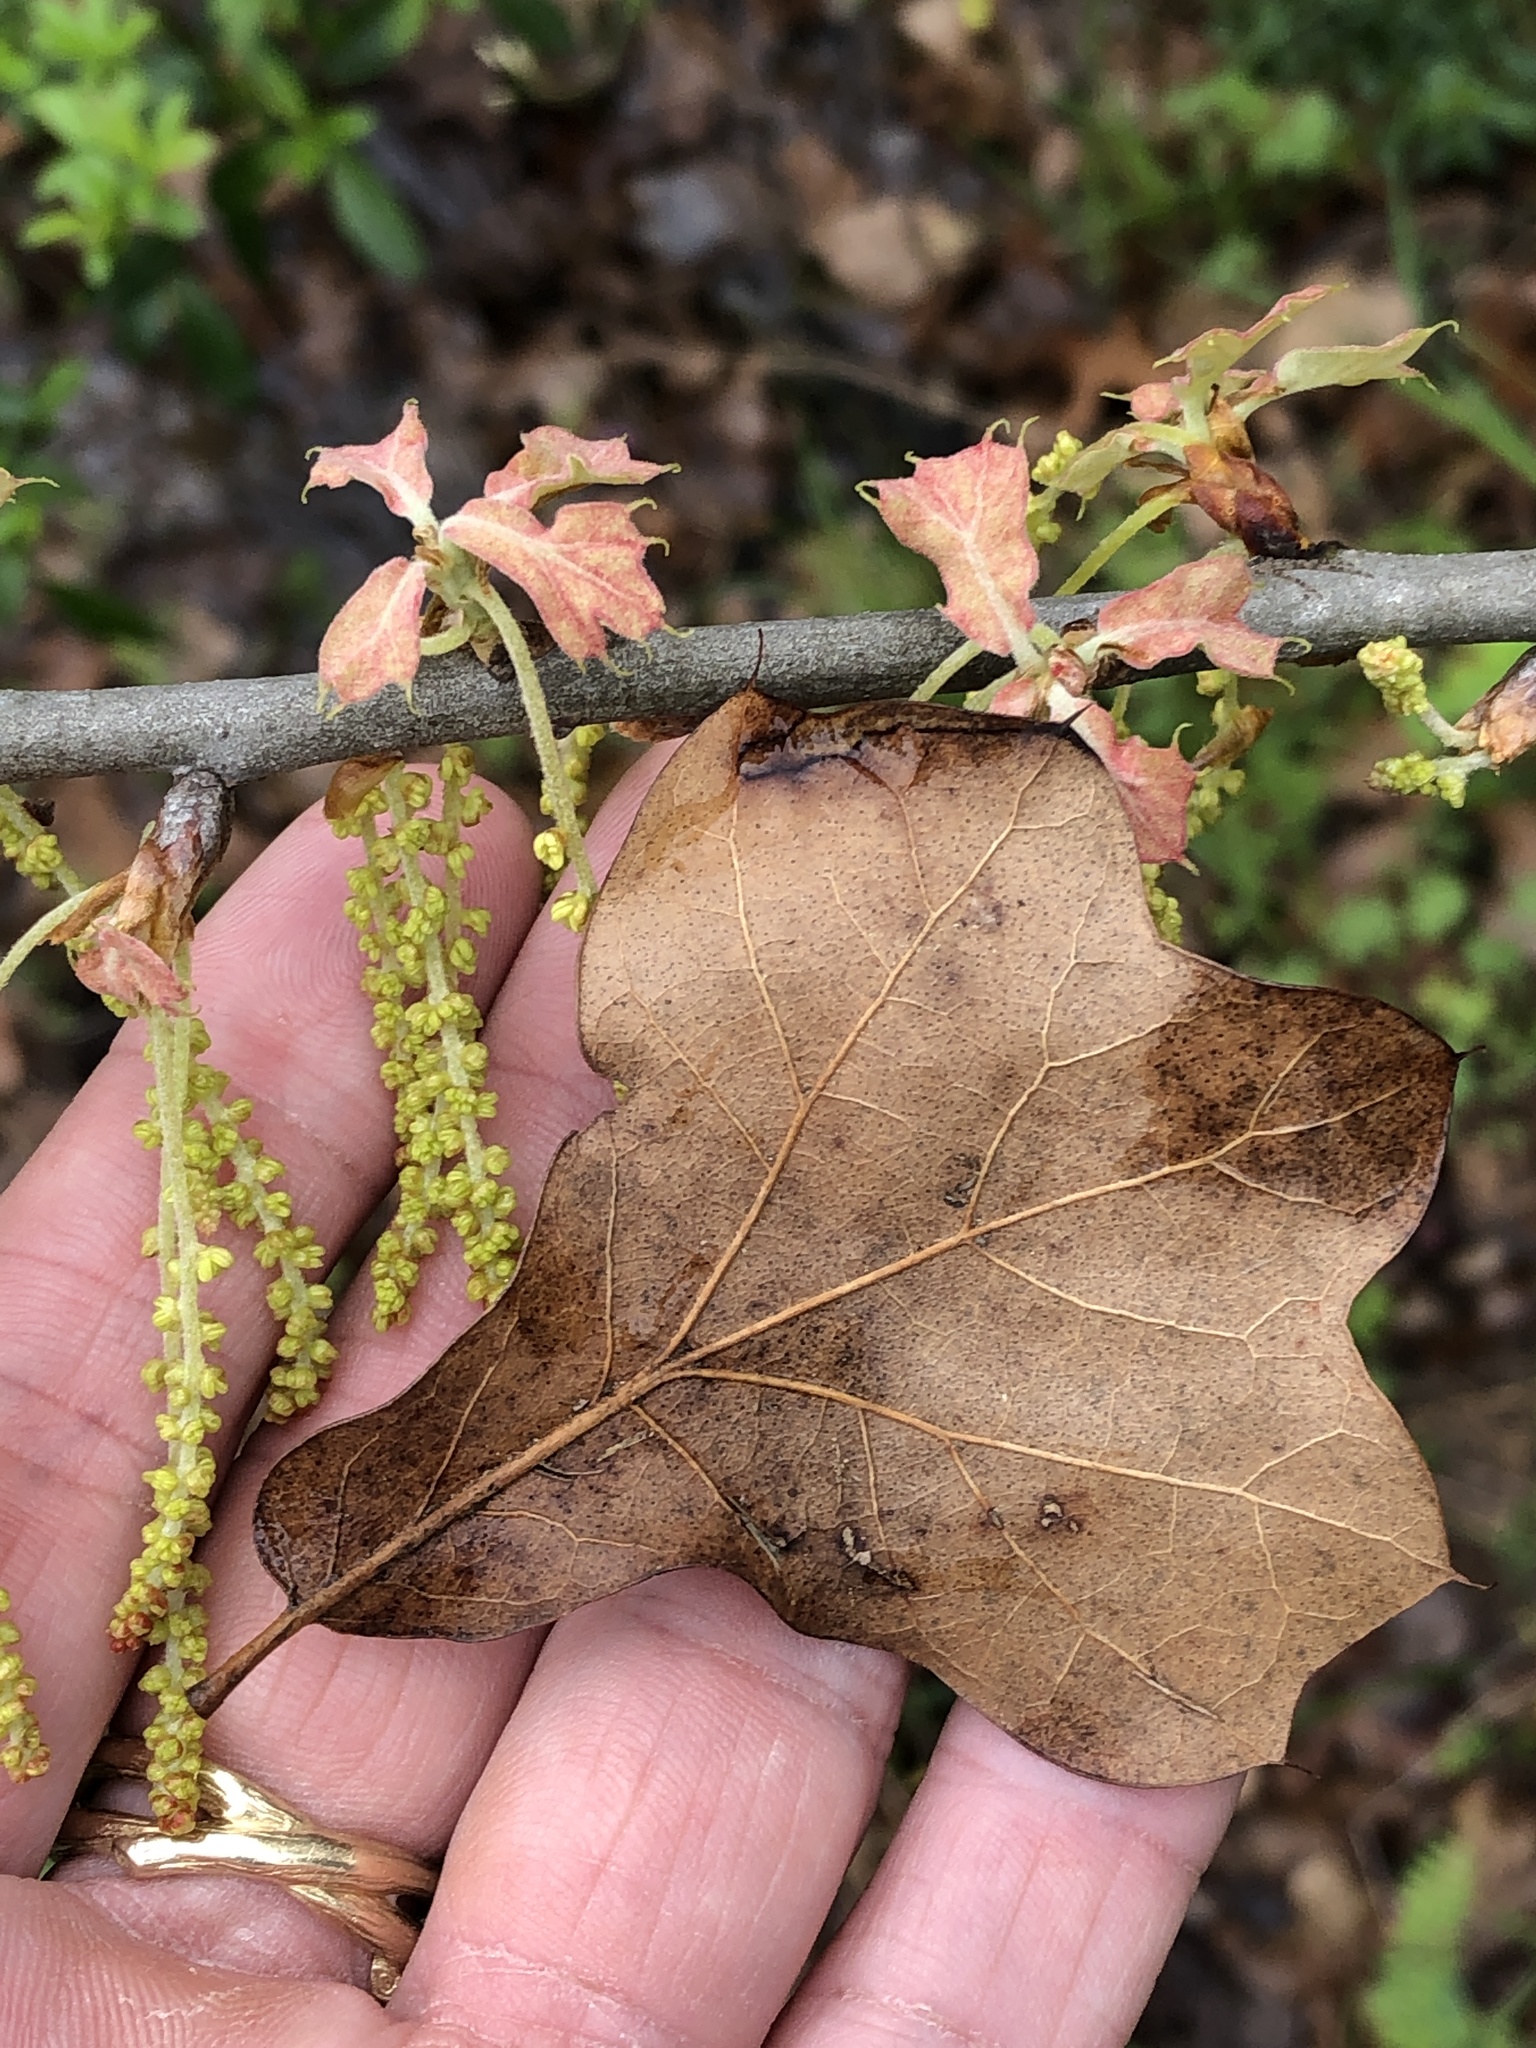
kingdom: Plantae
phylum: Tracheophyta
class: Magnoliopsida
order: Fagales
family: Fagaceae
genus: Quercus
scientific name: Quercus marilandica
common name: Blackjack oak
